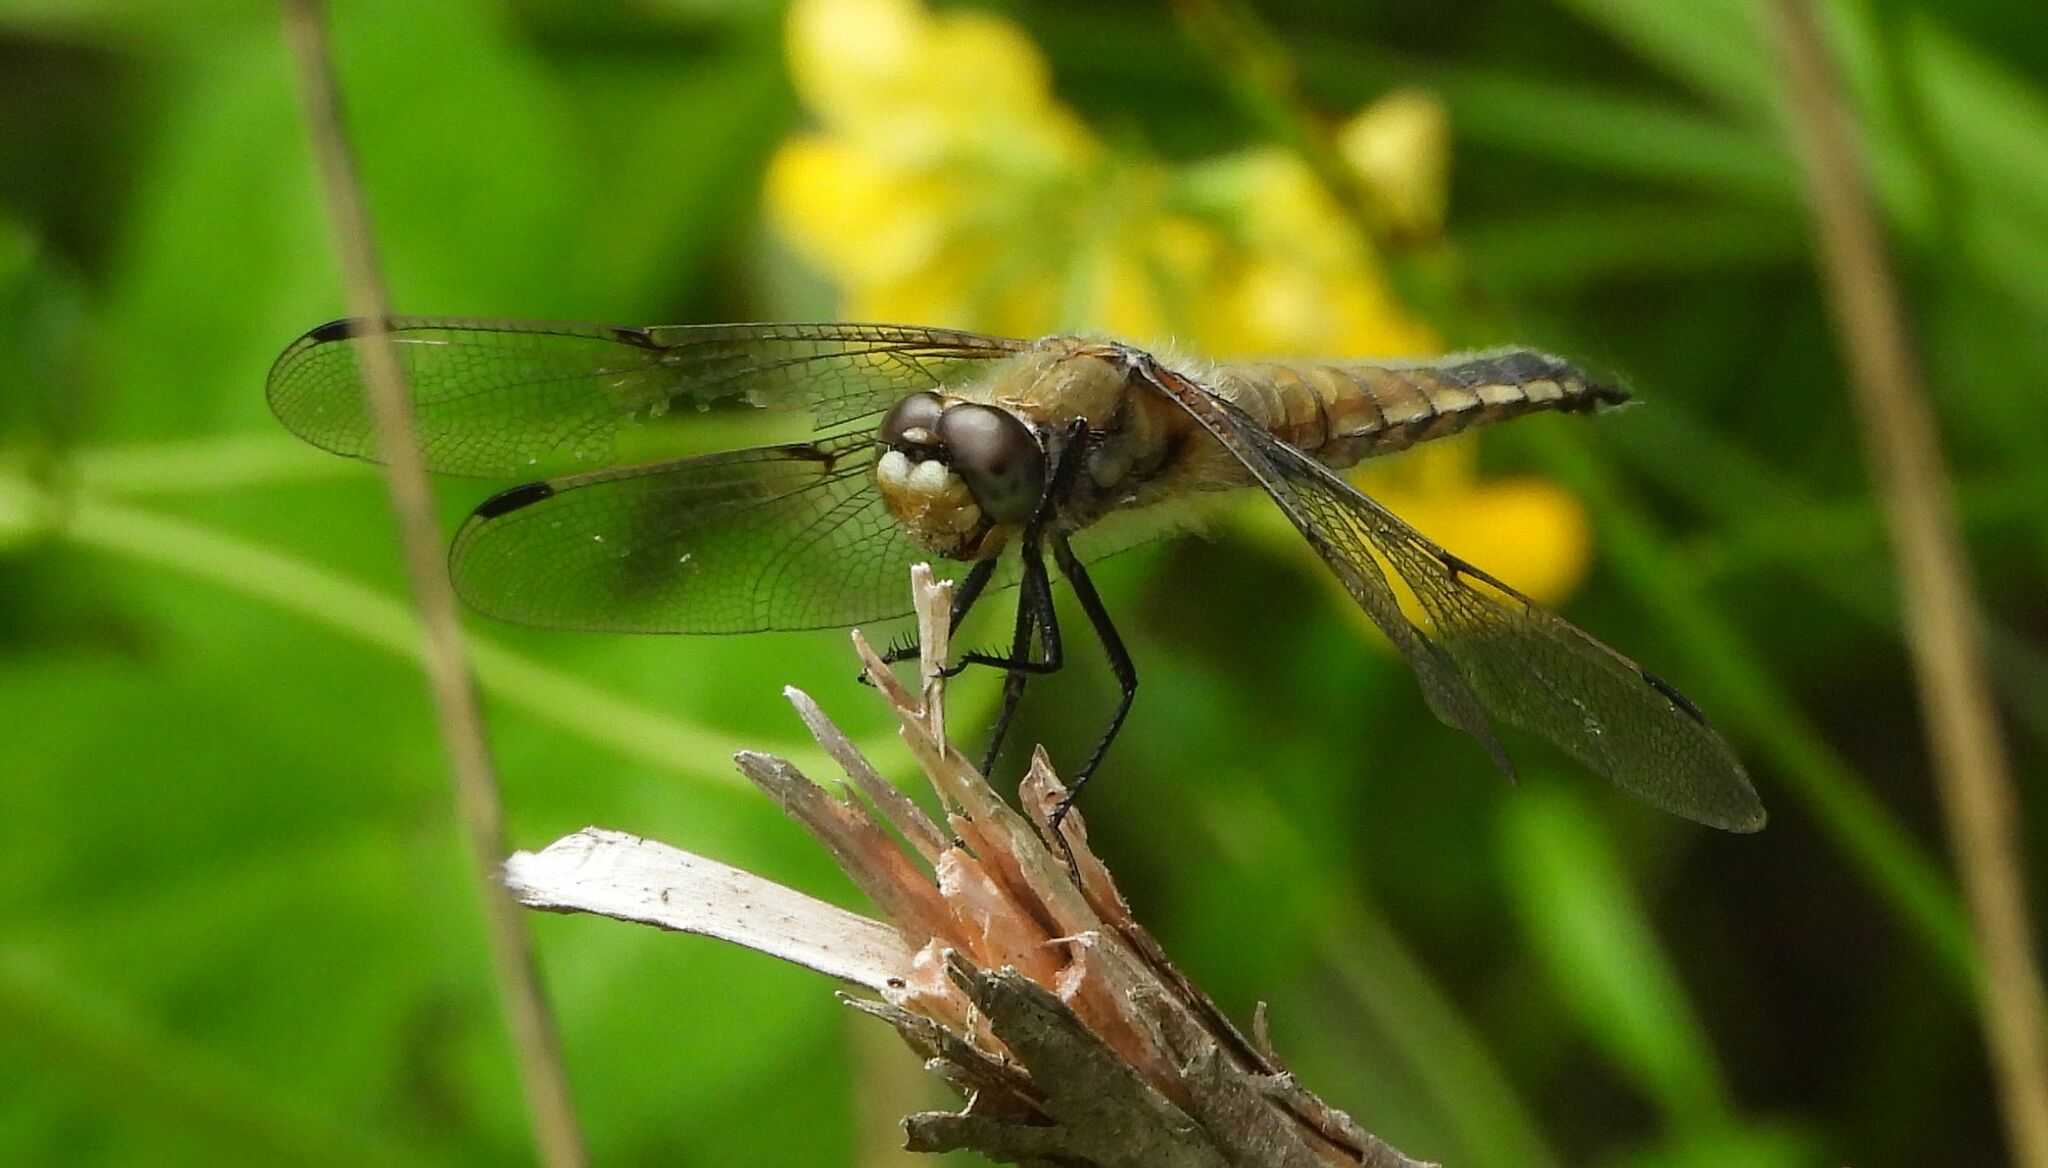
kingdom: Animalia
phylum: Arthropoda
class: Insecta
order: Odonata
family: Libellulidae
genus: Libellula
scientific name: Libellula quadrimaculata
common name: Four-spotted chaser
